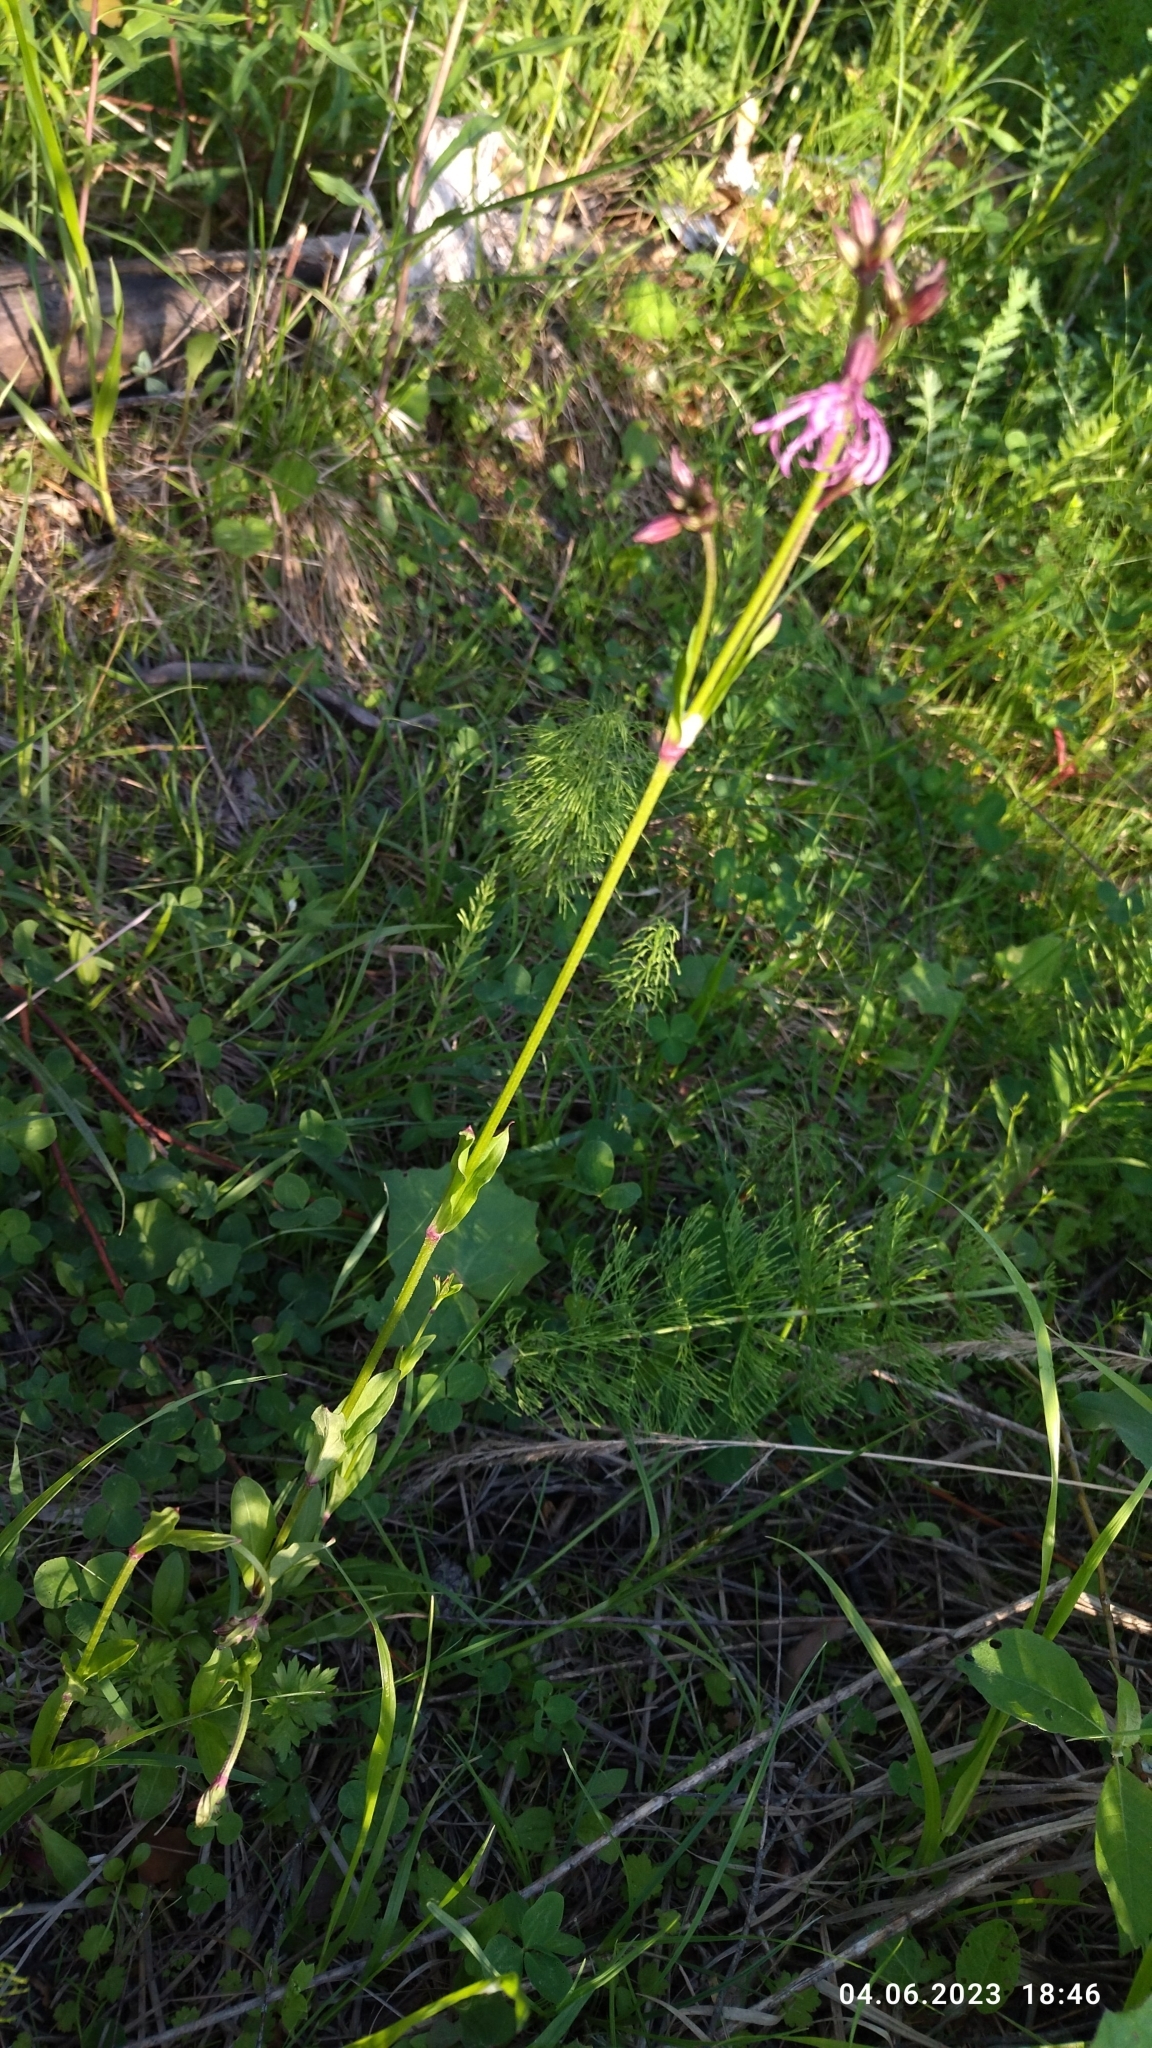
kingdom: Plantae
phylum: Tracheophyta
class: Magnoliopsida
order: Caryophyllales
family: Caryophyllaceae
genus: Silene
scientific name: Silene flos-cuculi
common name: Ragged-robin
